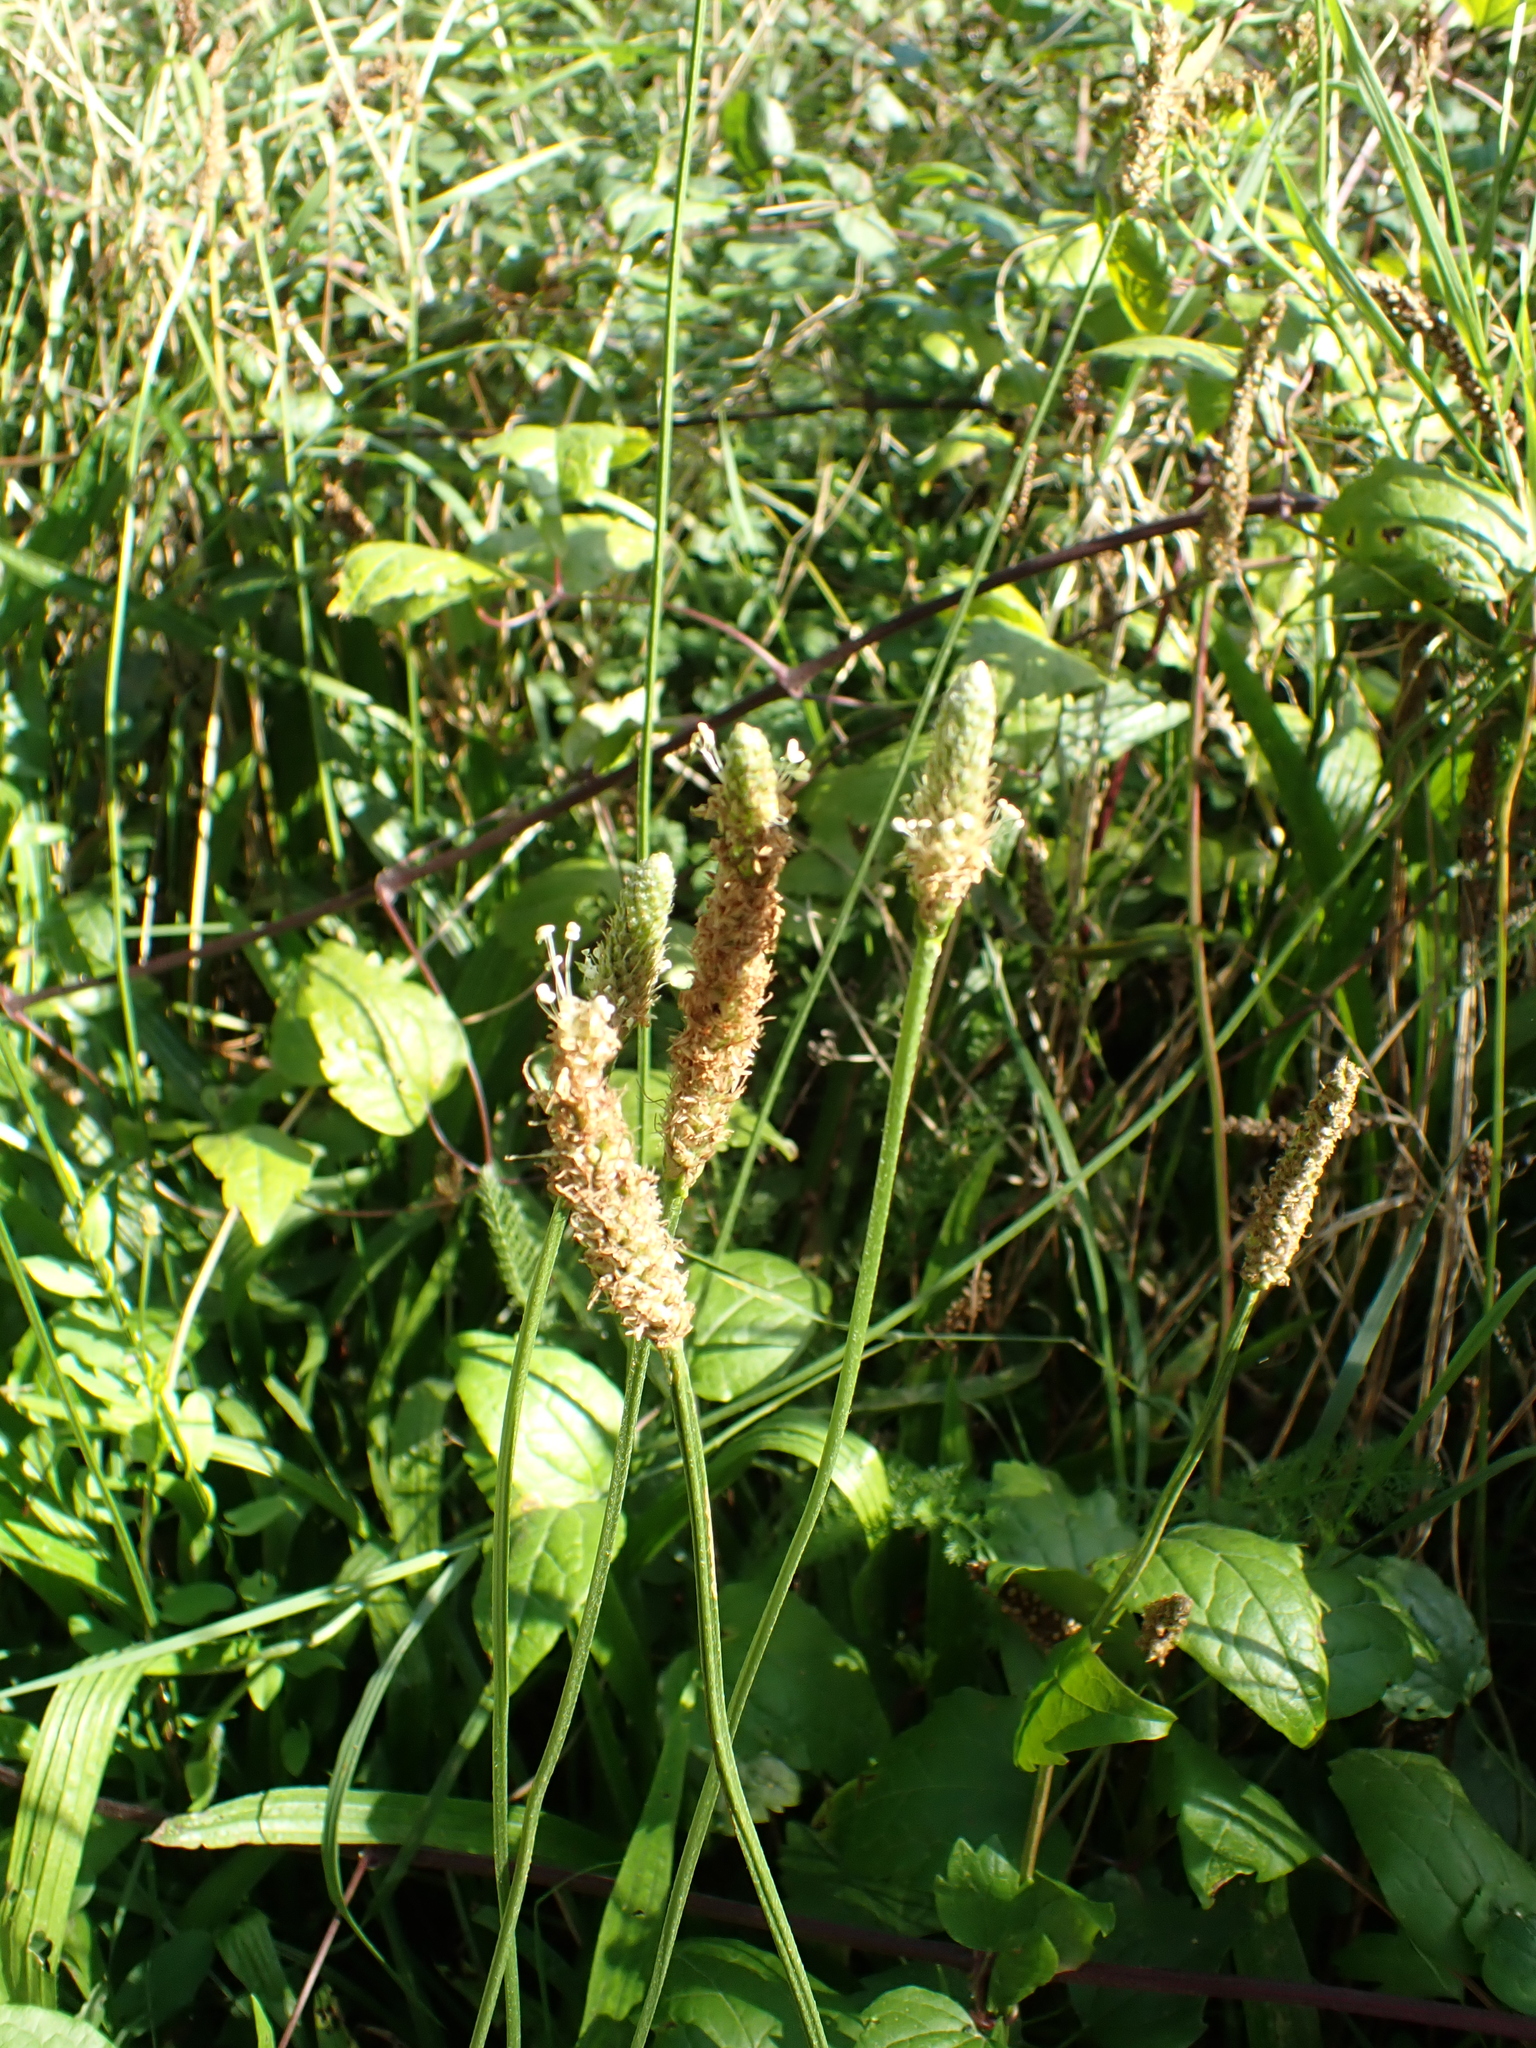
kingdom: Plantae
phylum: Tracheophyta
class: Magnoliopsida
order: Lamiales
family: Plantaginaceae
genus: Plantago
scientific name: Plantago lanceolata
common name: Ribwort plantain
